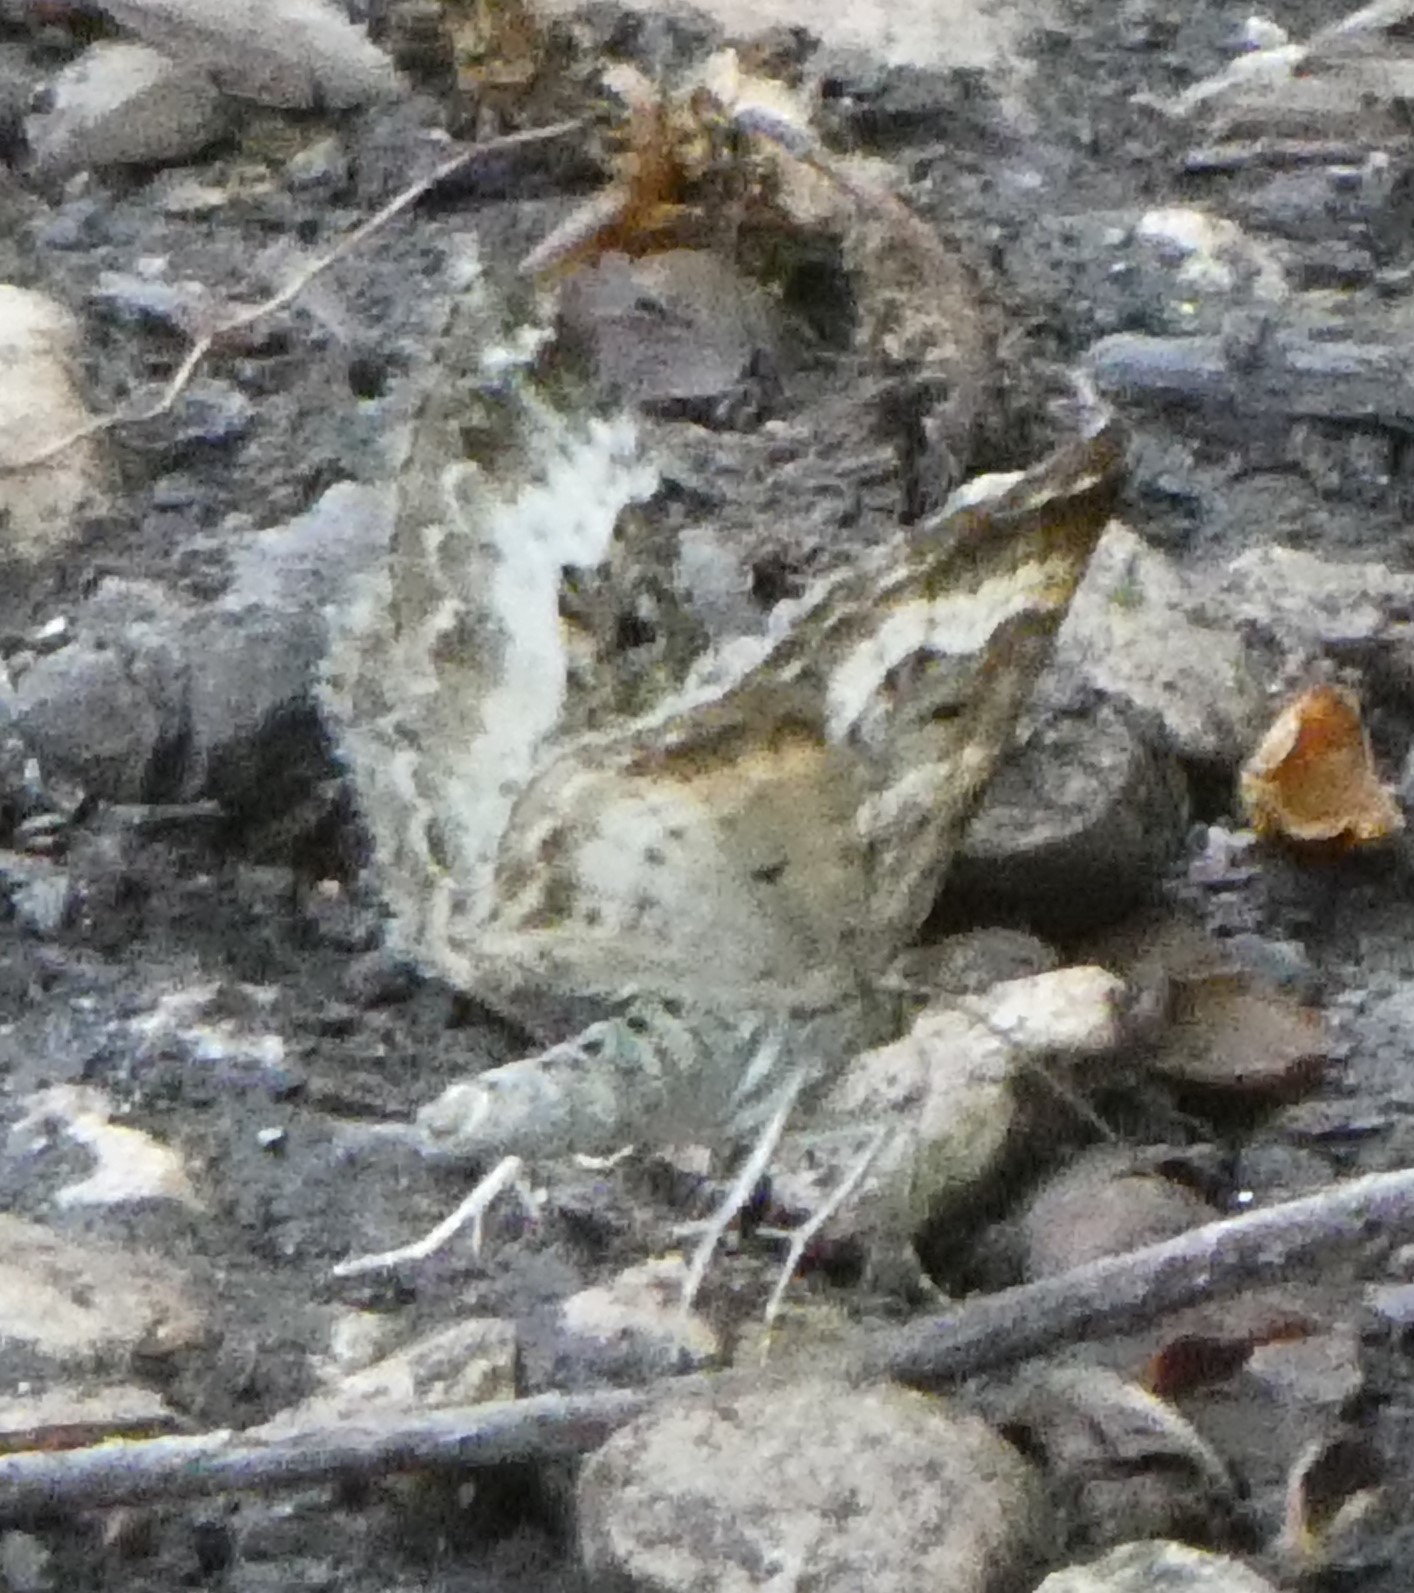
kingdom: Animalia
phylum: Arthropoda
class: Insecta
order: Lepidoptera
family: Geometridae
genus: Epirrhoe
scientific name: Epirrhoe alternata
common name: Common carpet
